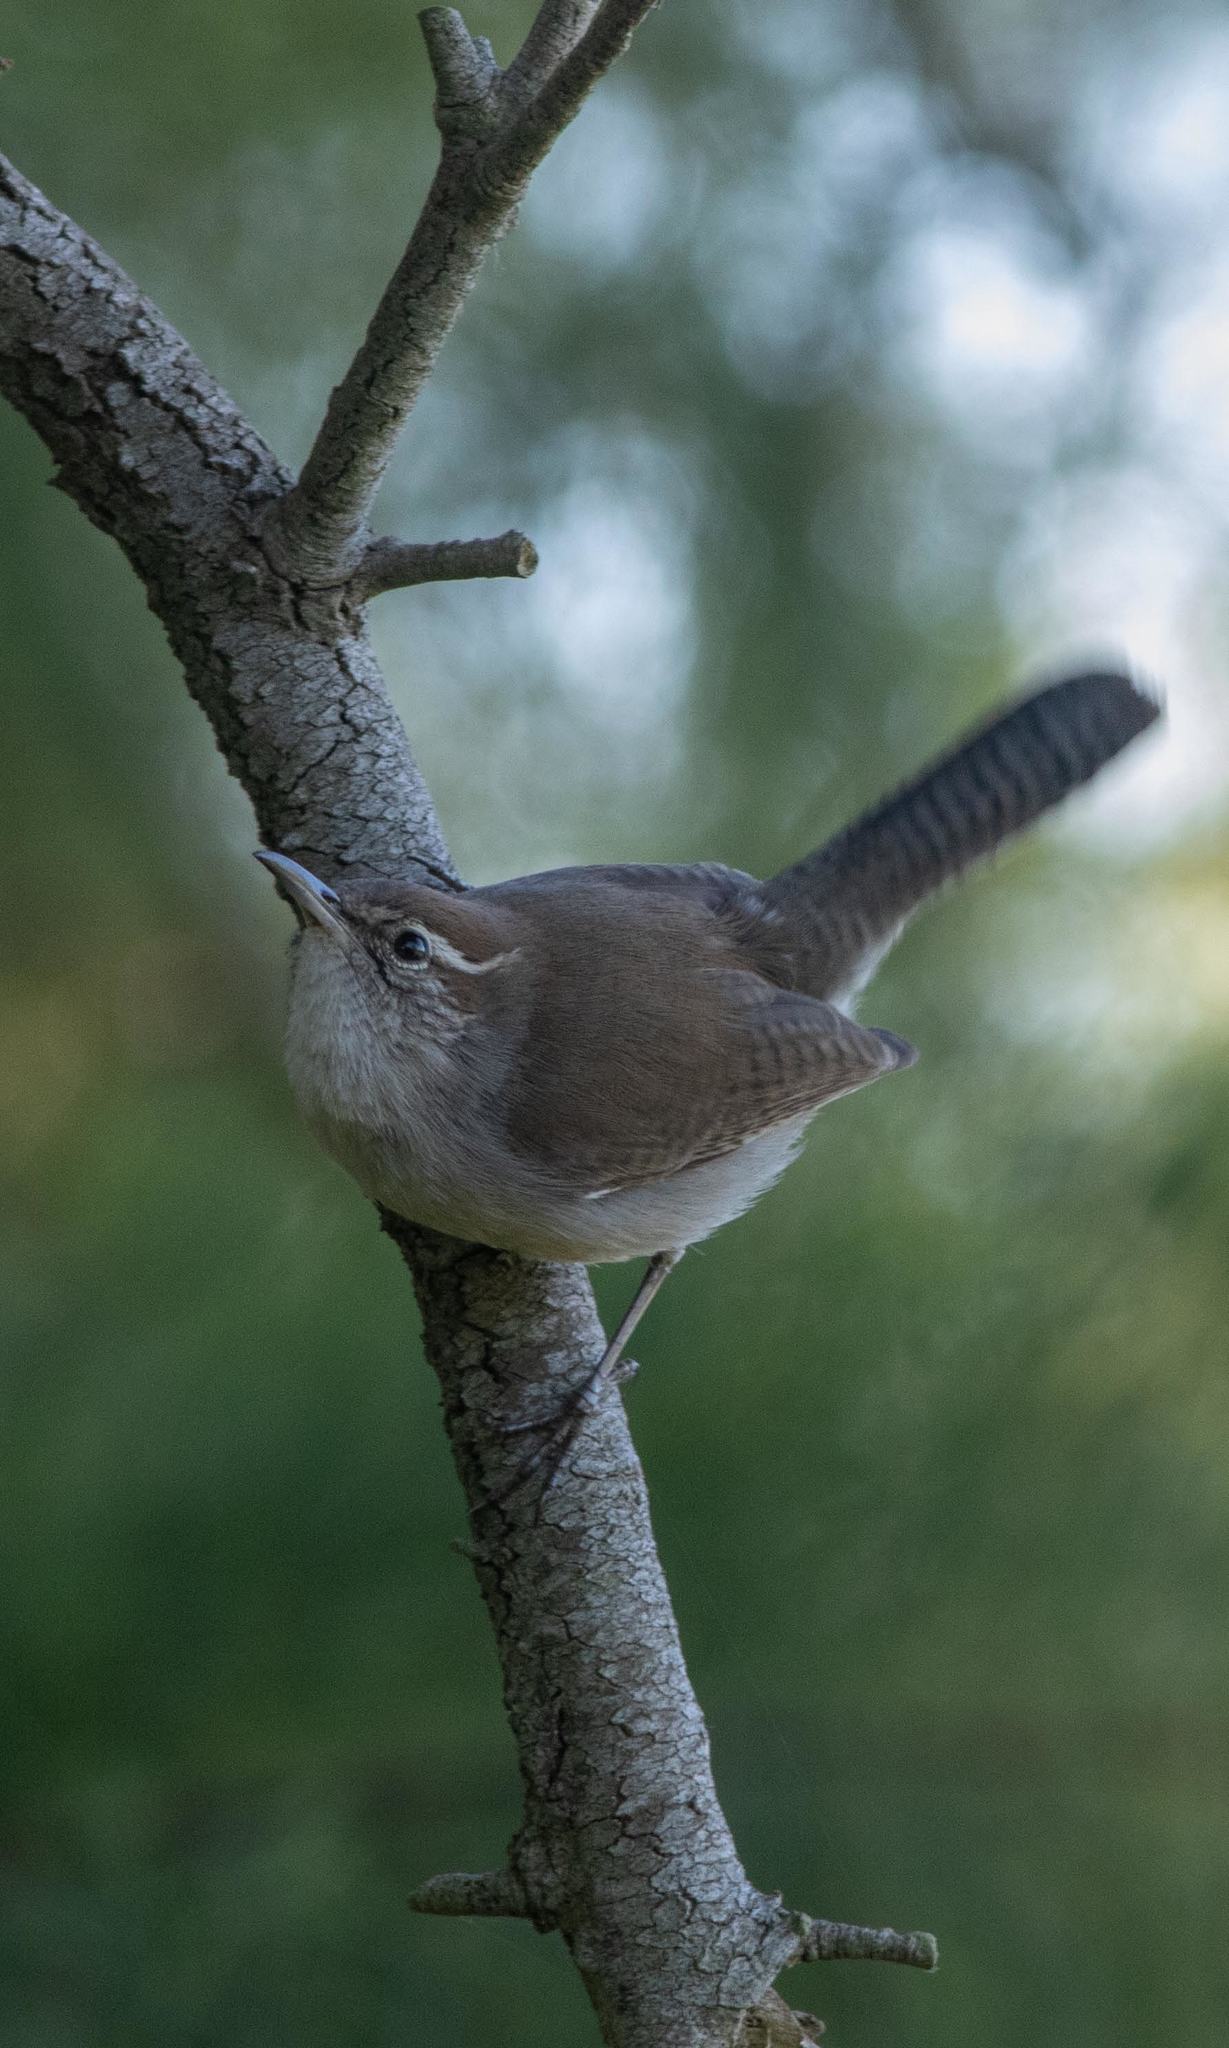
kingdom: Animalia
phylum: Chordata
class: Aves
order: Passeriformes
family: Troglodytidae
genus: Thryomanes
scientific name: Thryomanes bewickii
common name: Bewick's wren
